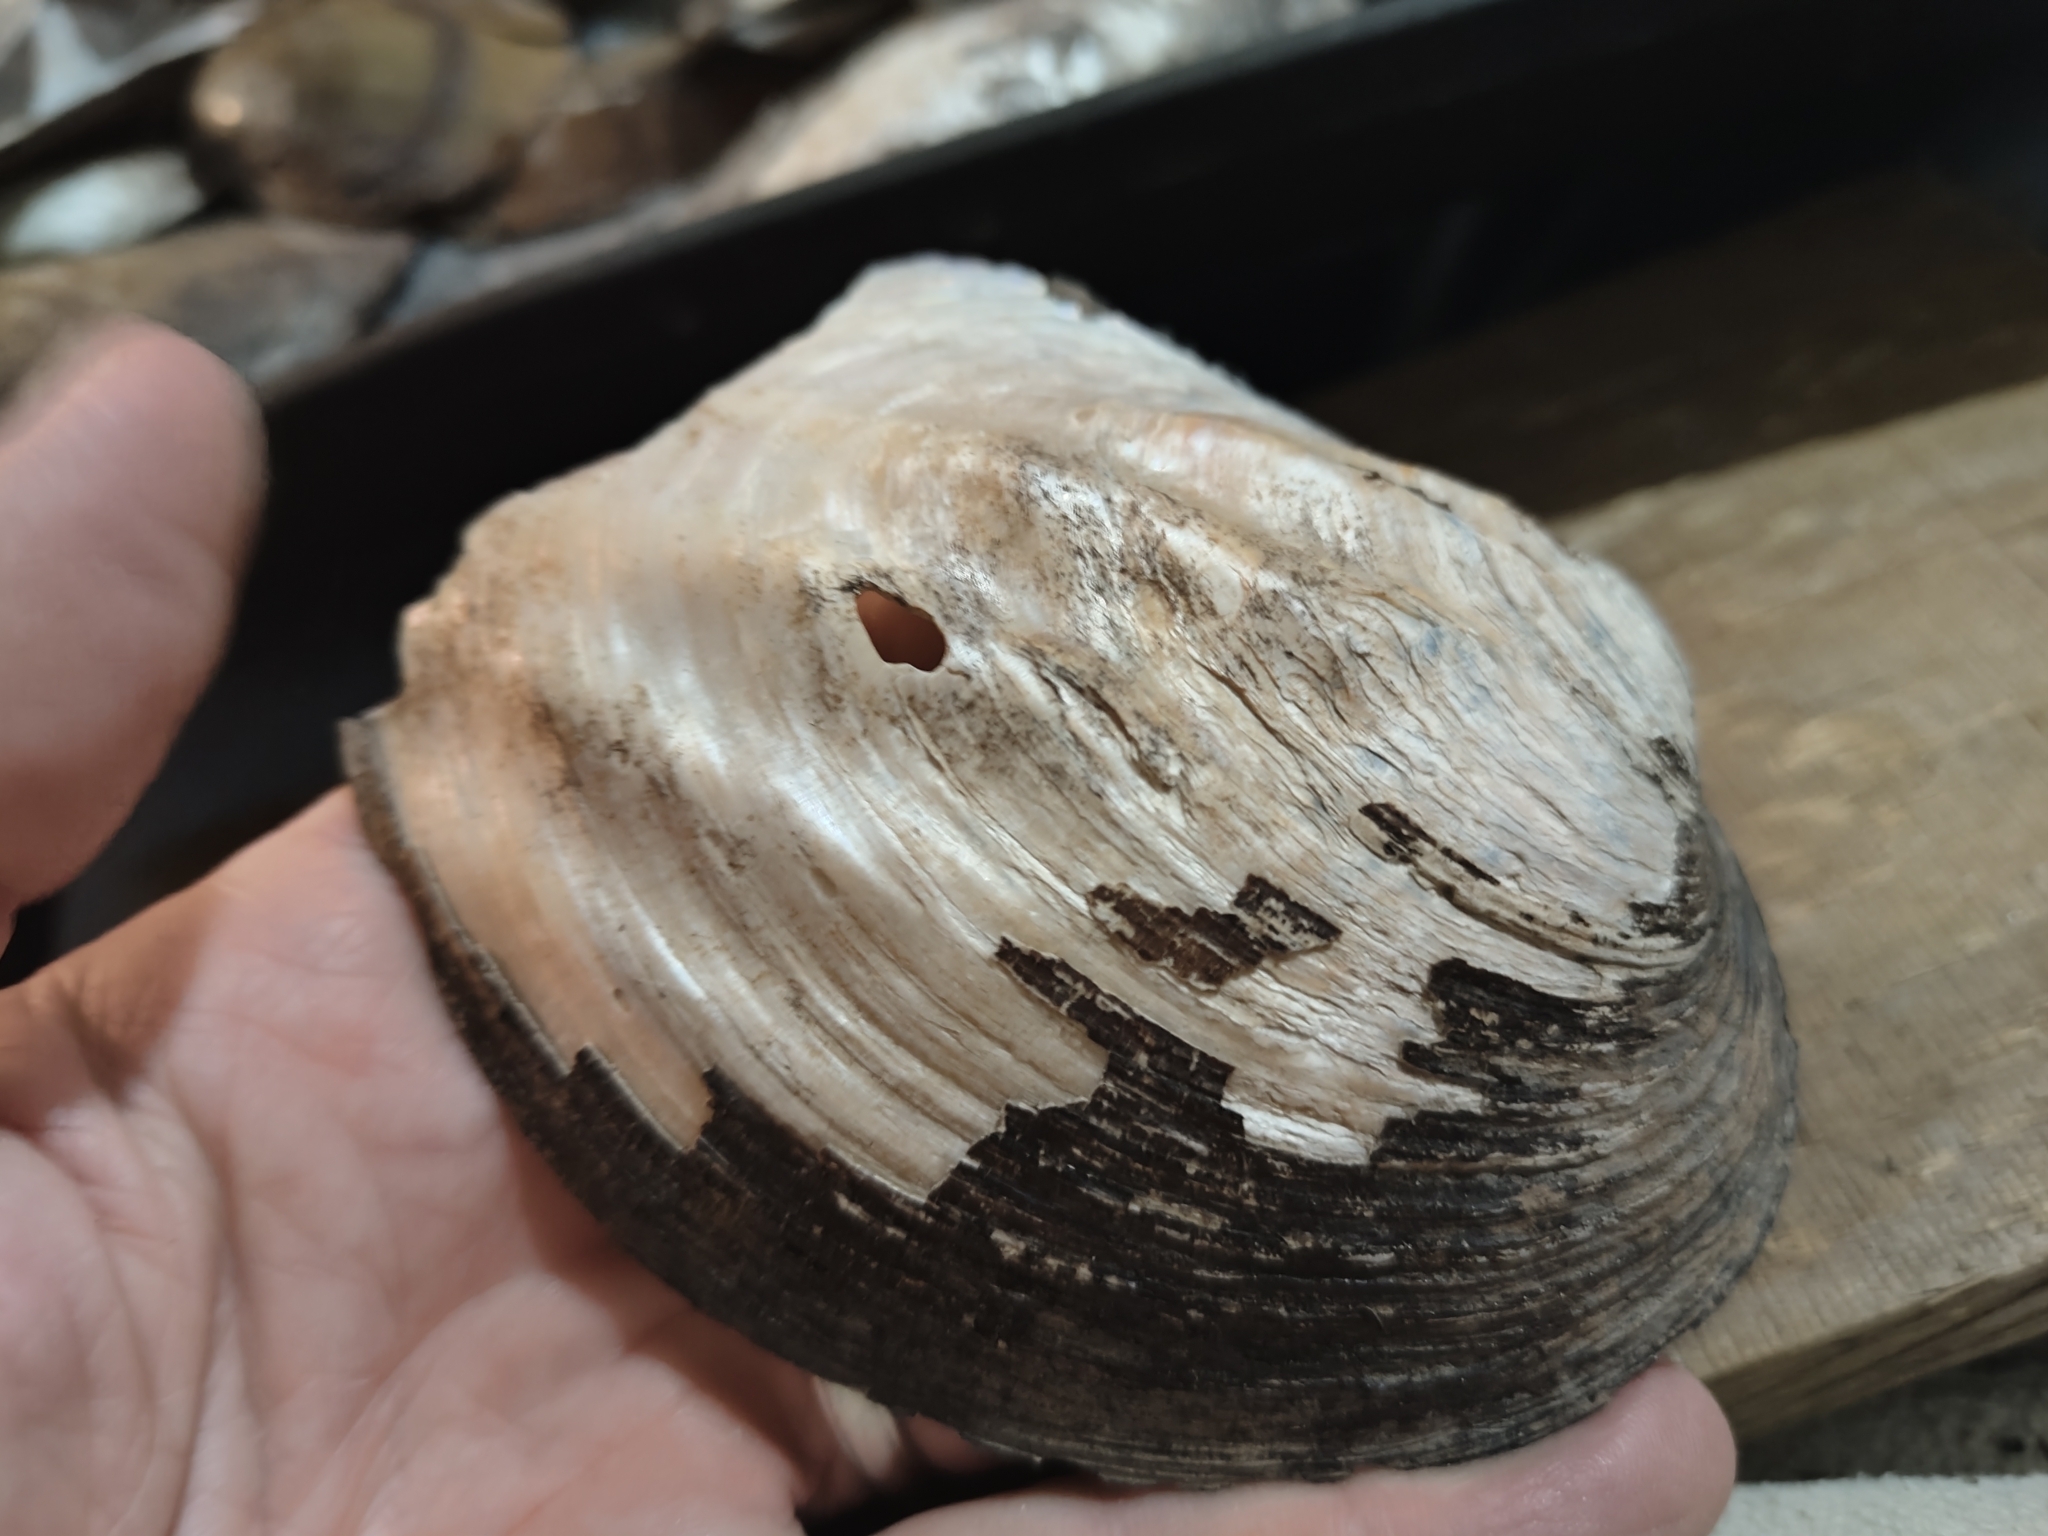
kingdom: Animalia
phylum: Mollusca
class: Bivalvia
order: Unionida
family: Unionidae
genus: Amblema
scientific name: Amblema plicata
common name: Threeridge
